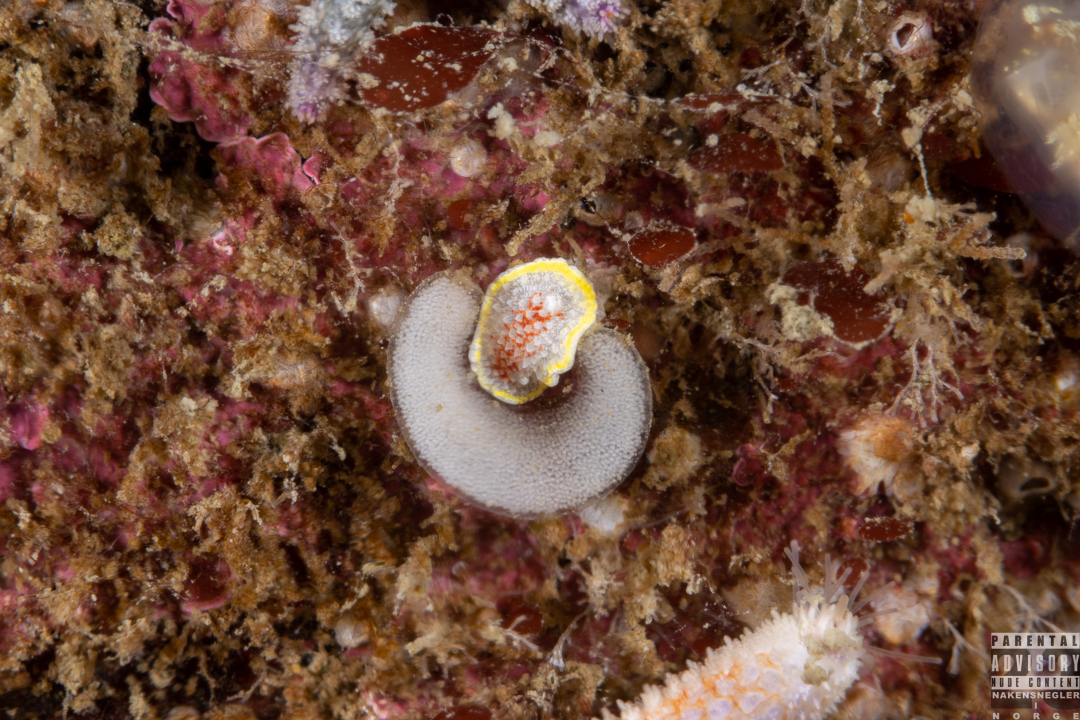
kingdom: Animalia
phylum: Mollusca
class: Gastropoda
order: Nudibranchia
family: Calycidorididae
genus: Diaphorodoris
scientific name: Diaphorodoris luteocincta
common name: Fried egg nudibranch
